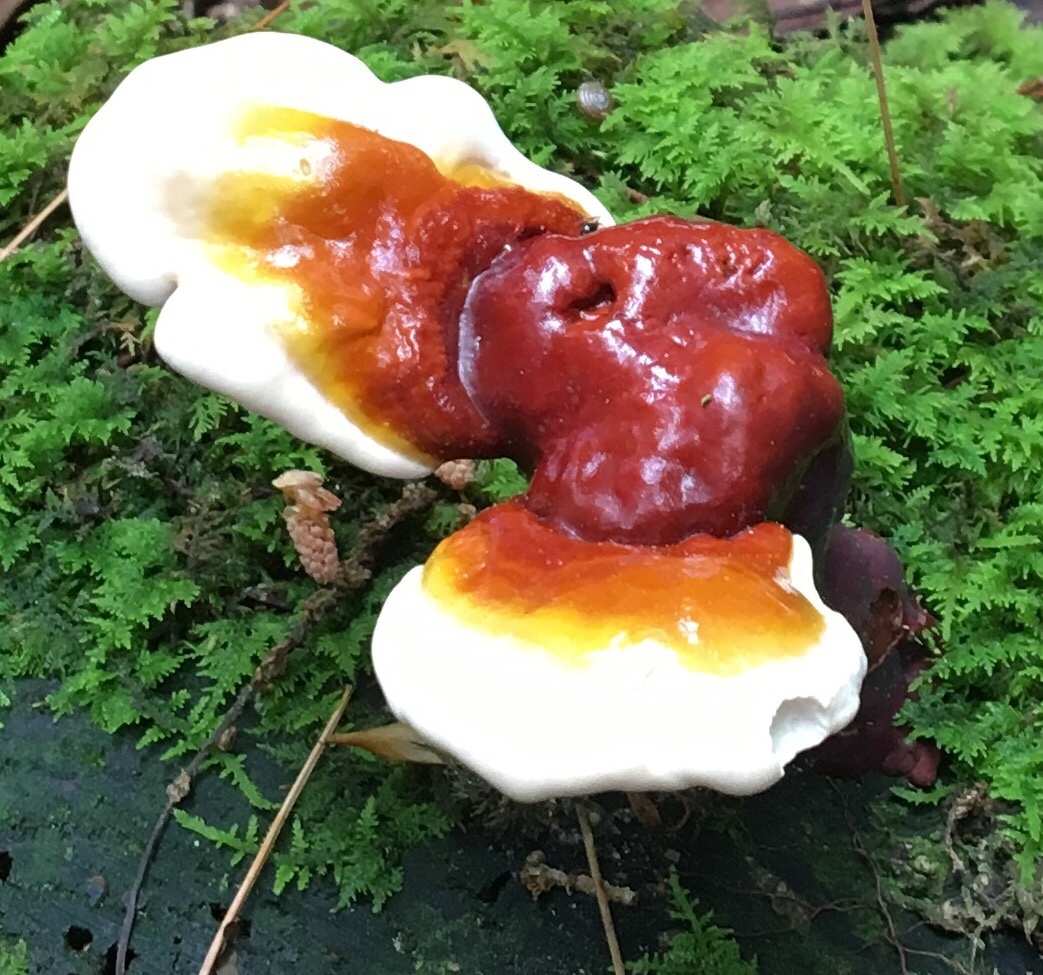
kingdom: Fungi
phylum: Basidiomycota
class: Agaricomycetes
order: Polyporales
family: Polyporaceae
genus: Ganoderma
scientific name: Ganoderma tsugae
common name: Hemlock varnish shelf
